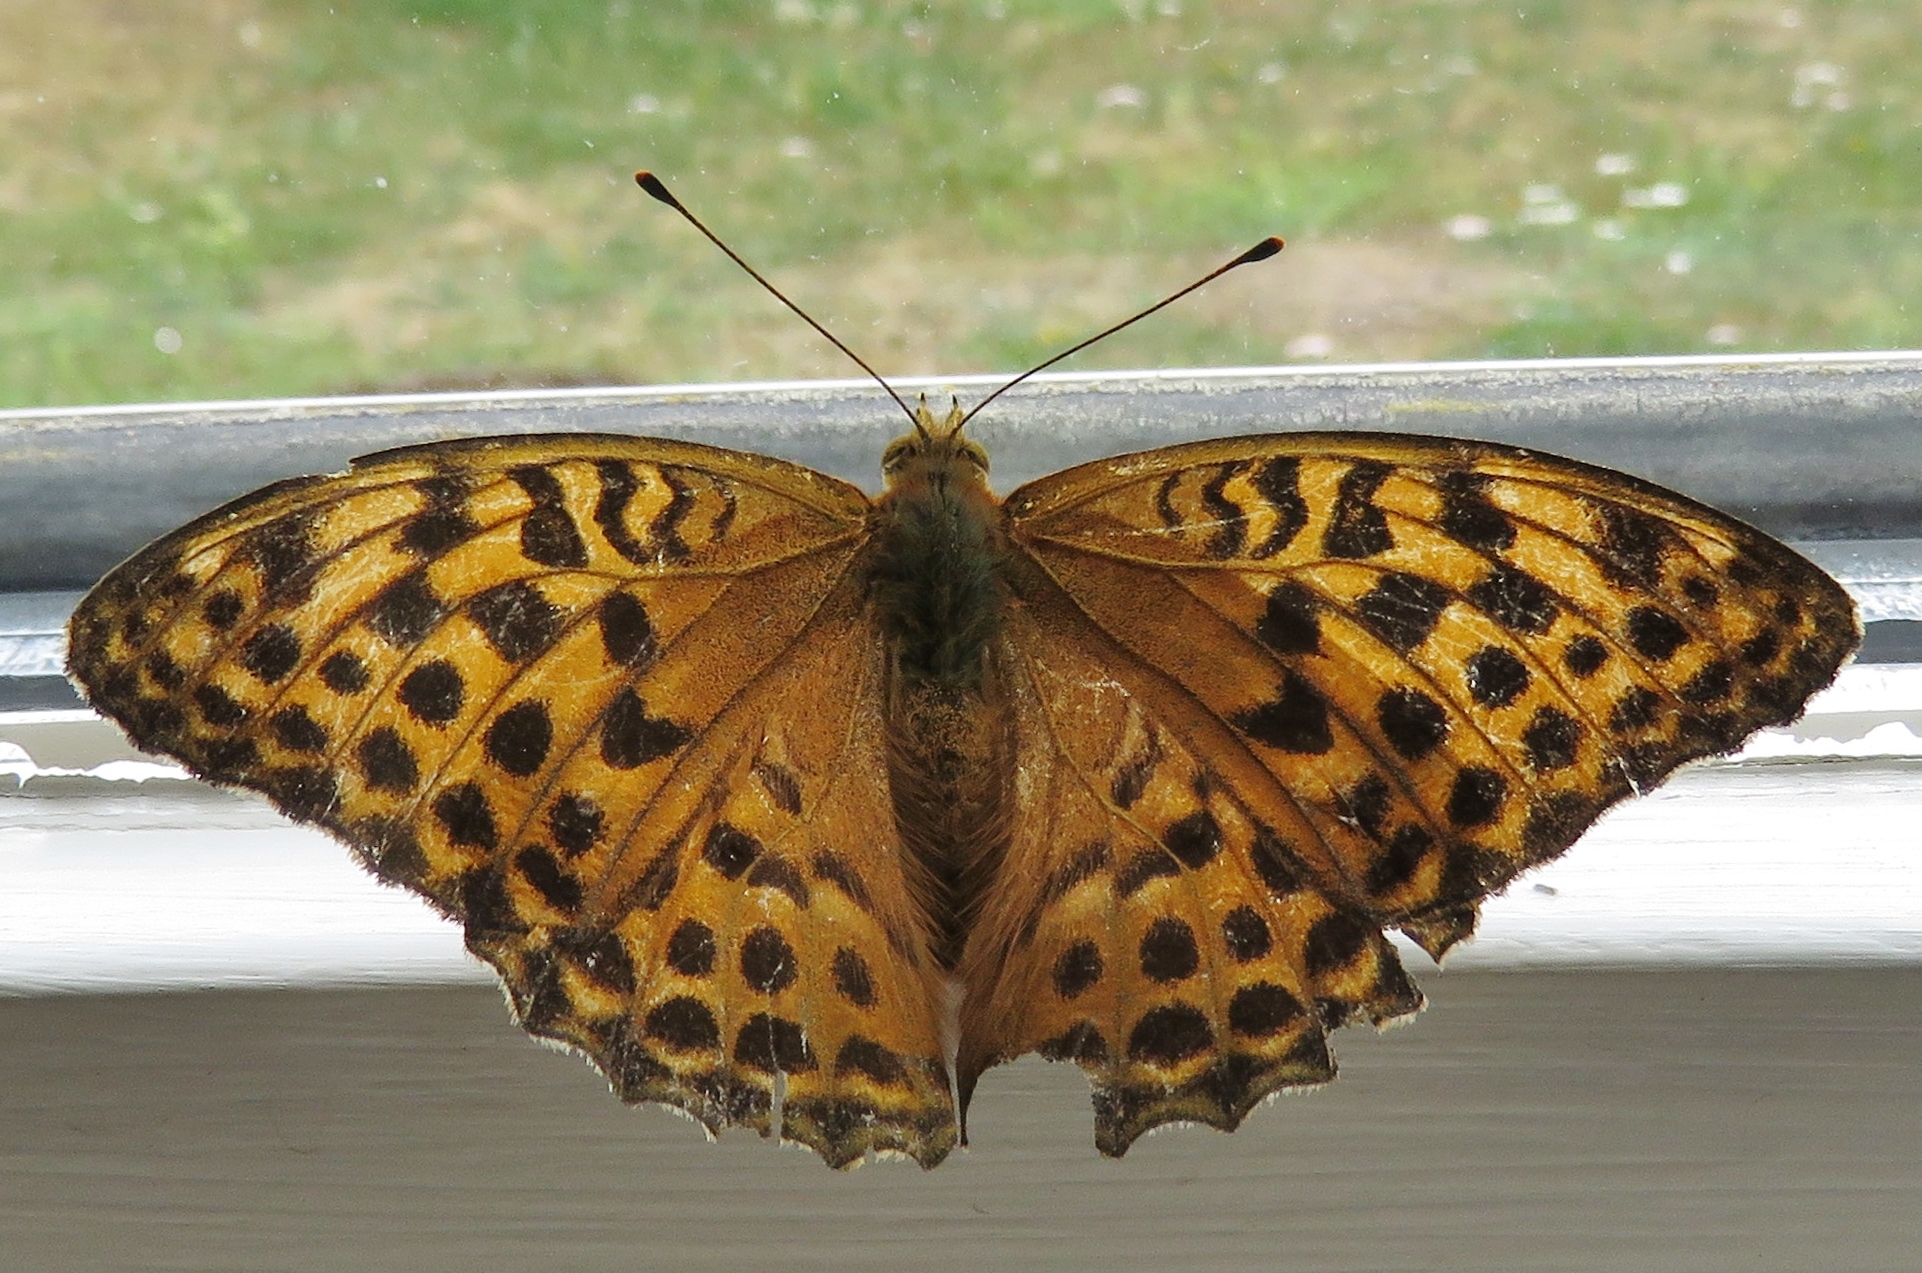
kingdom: Animalia
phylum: Arthropoda
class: Insecta
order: Lepidoptera
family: Nymphalidae
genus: Argynnis
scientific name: Argynnis paphia
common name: Silver-washed fritillary
